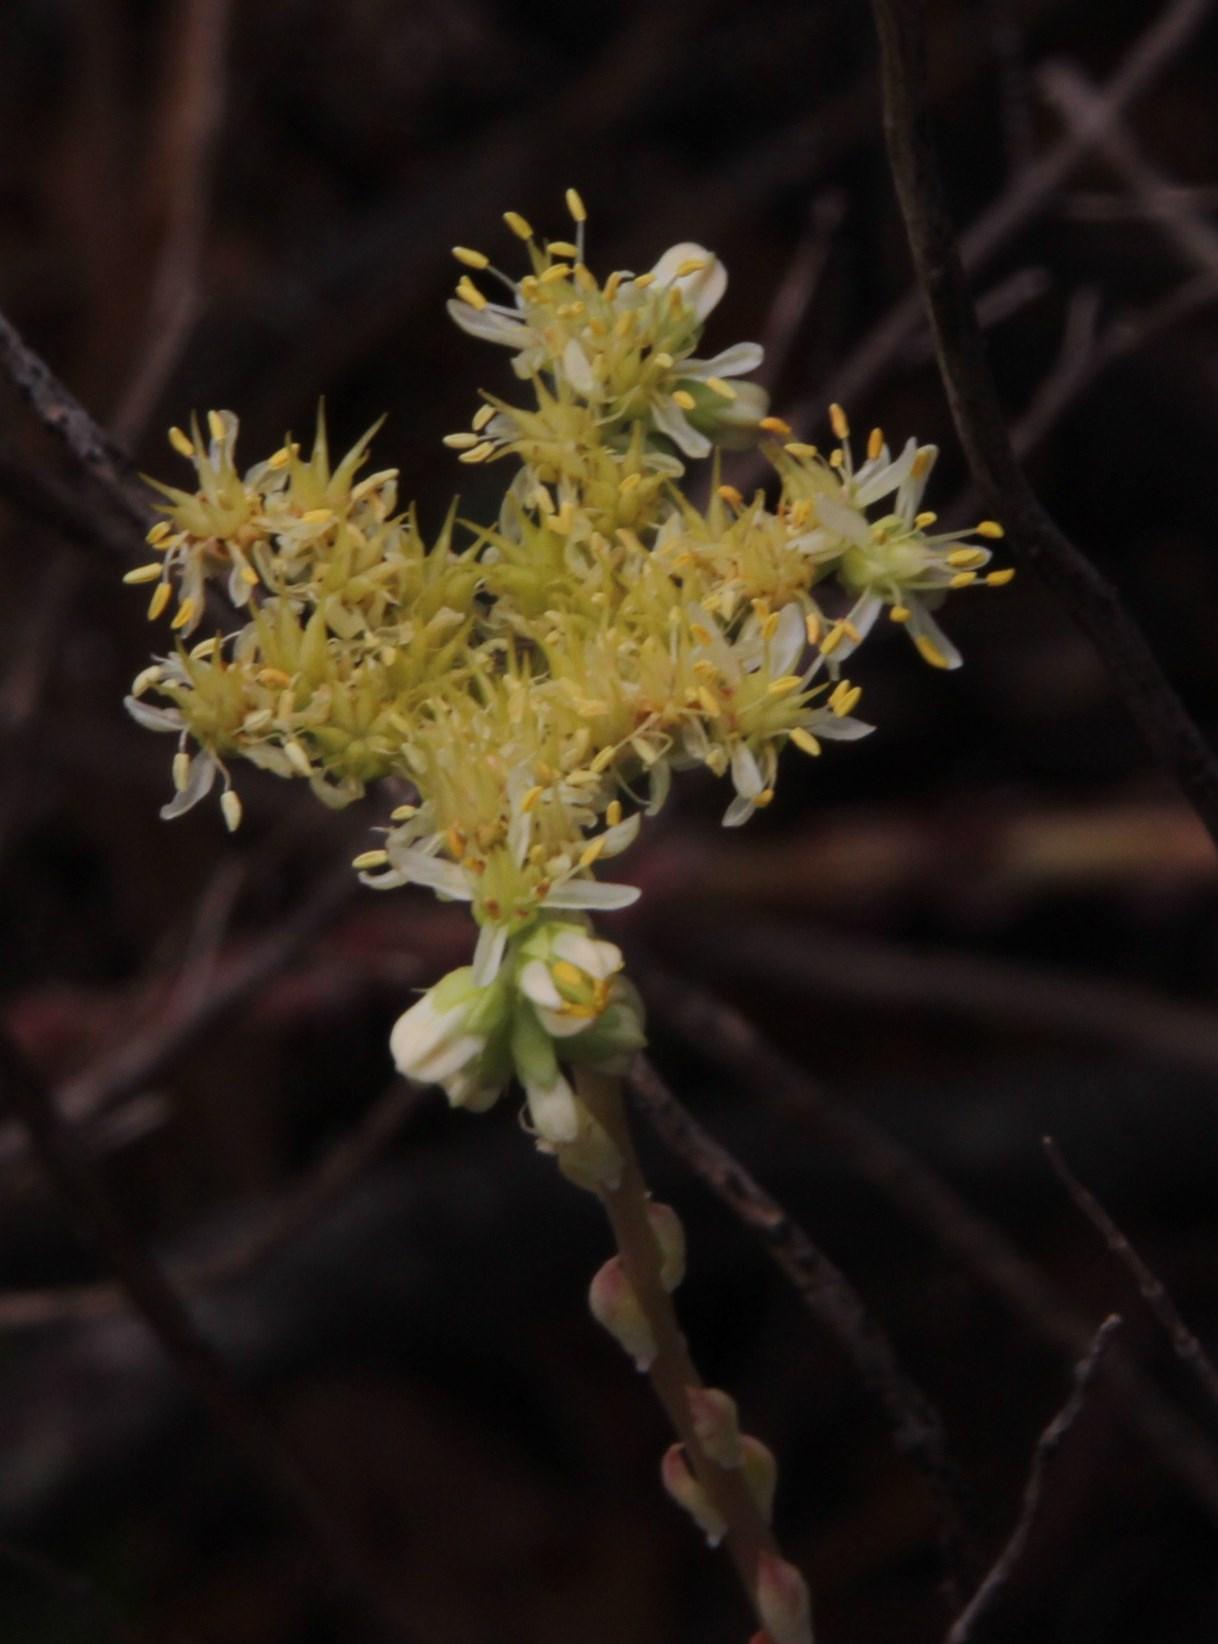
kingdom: Plantae
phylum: Tracheophyta
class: Magnoliopsida
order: Saxifragales
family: Crassulaceae
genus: Petrosedum
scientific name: Petrosedum sediforme
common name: Pale stonecrop
